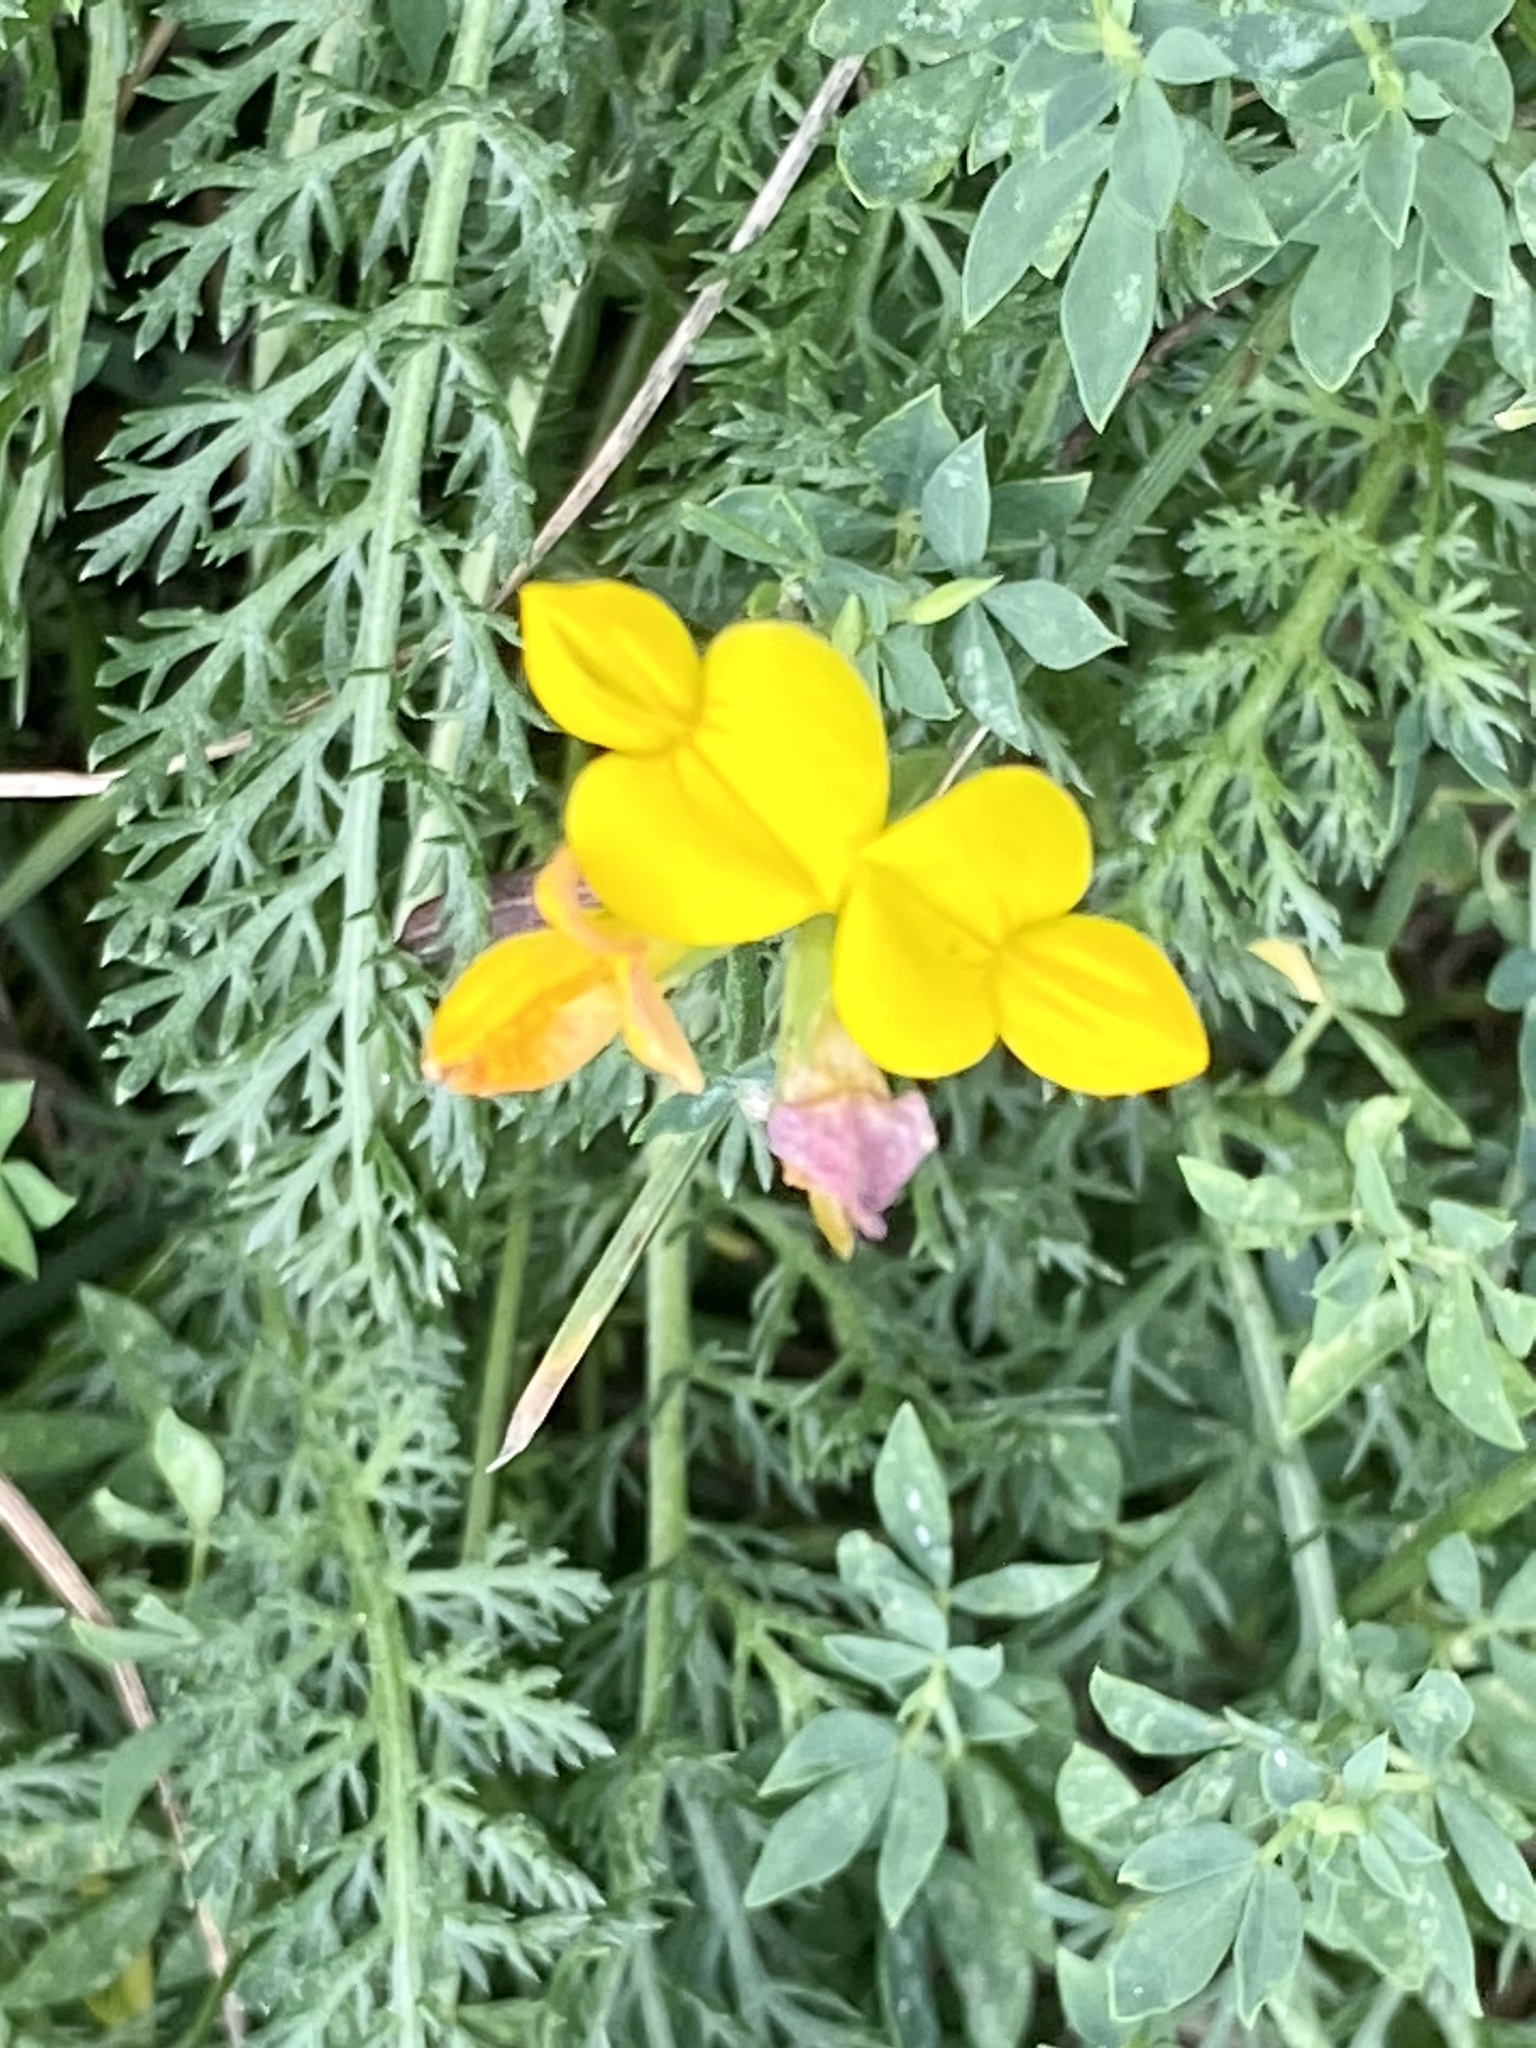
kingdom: Plantae
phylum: Tracheophyta
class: Magnoliopsida
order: Fabales
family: Fabaceae
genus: Lotus
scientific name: Lotus corniculatus
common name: Common bird's-foot-trefoil
